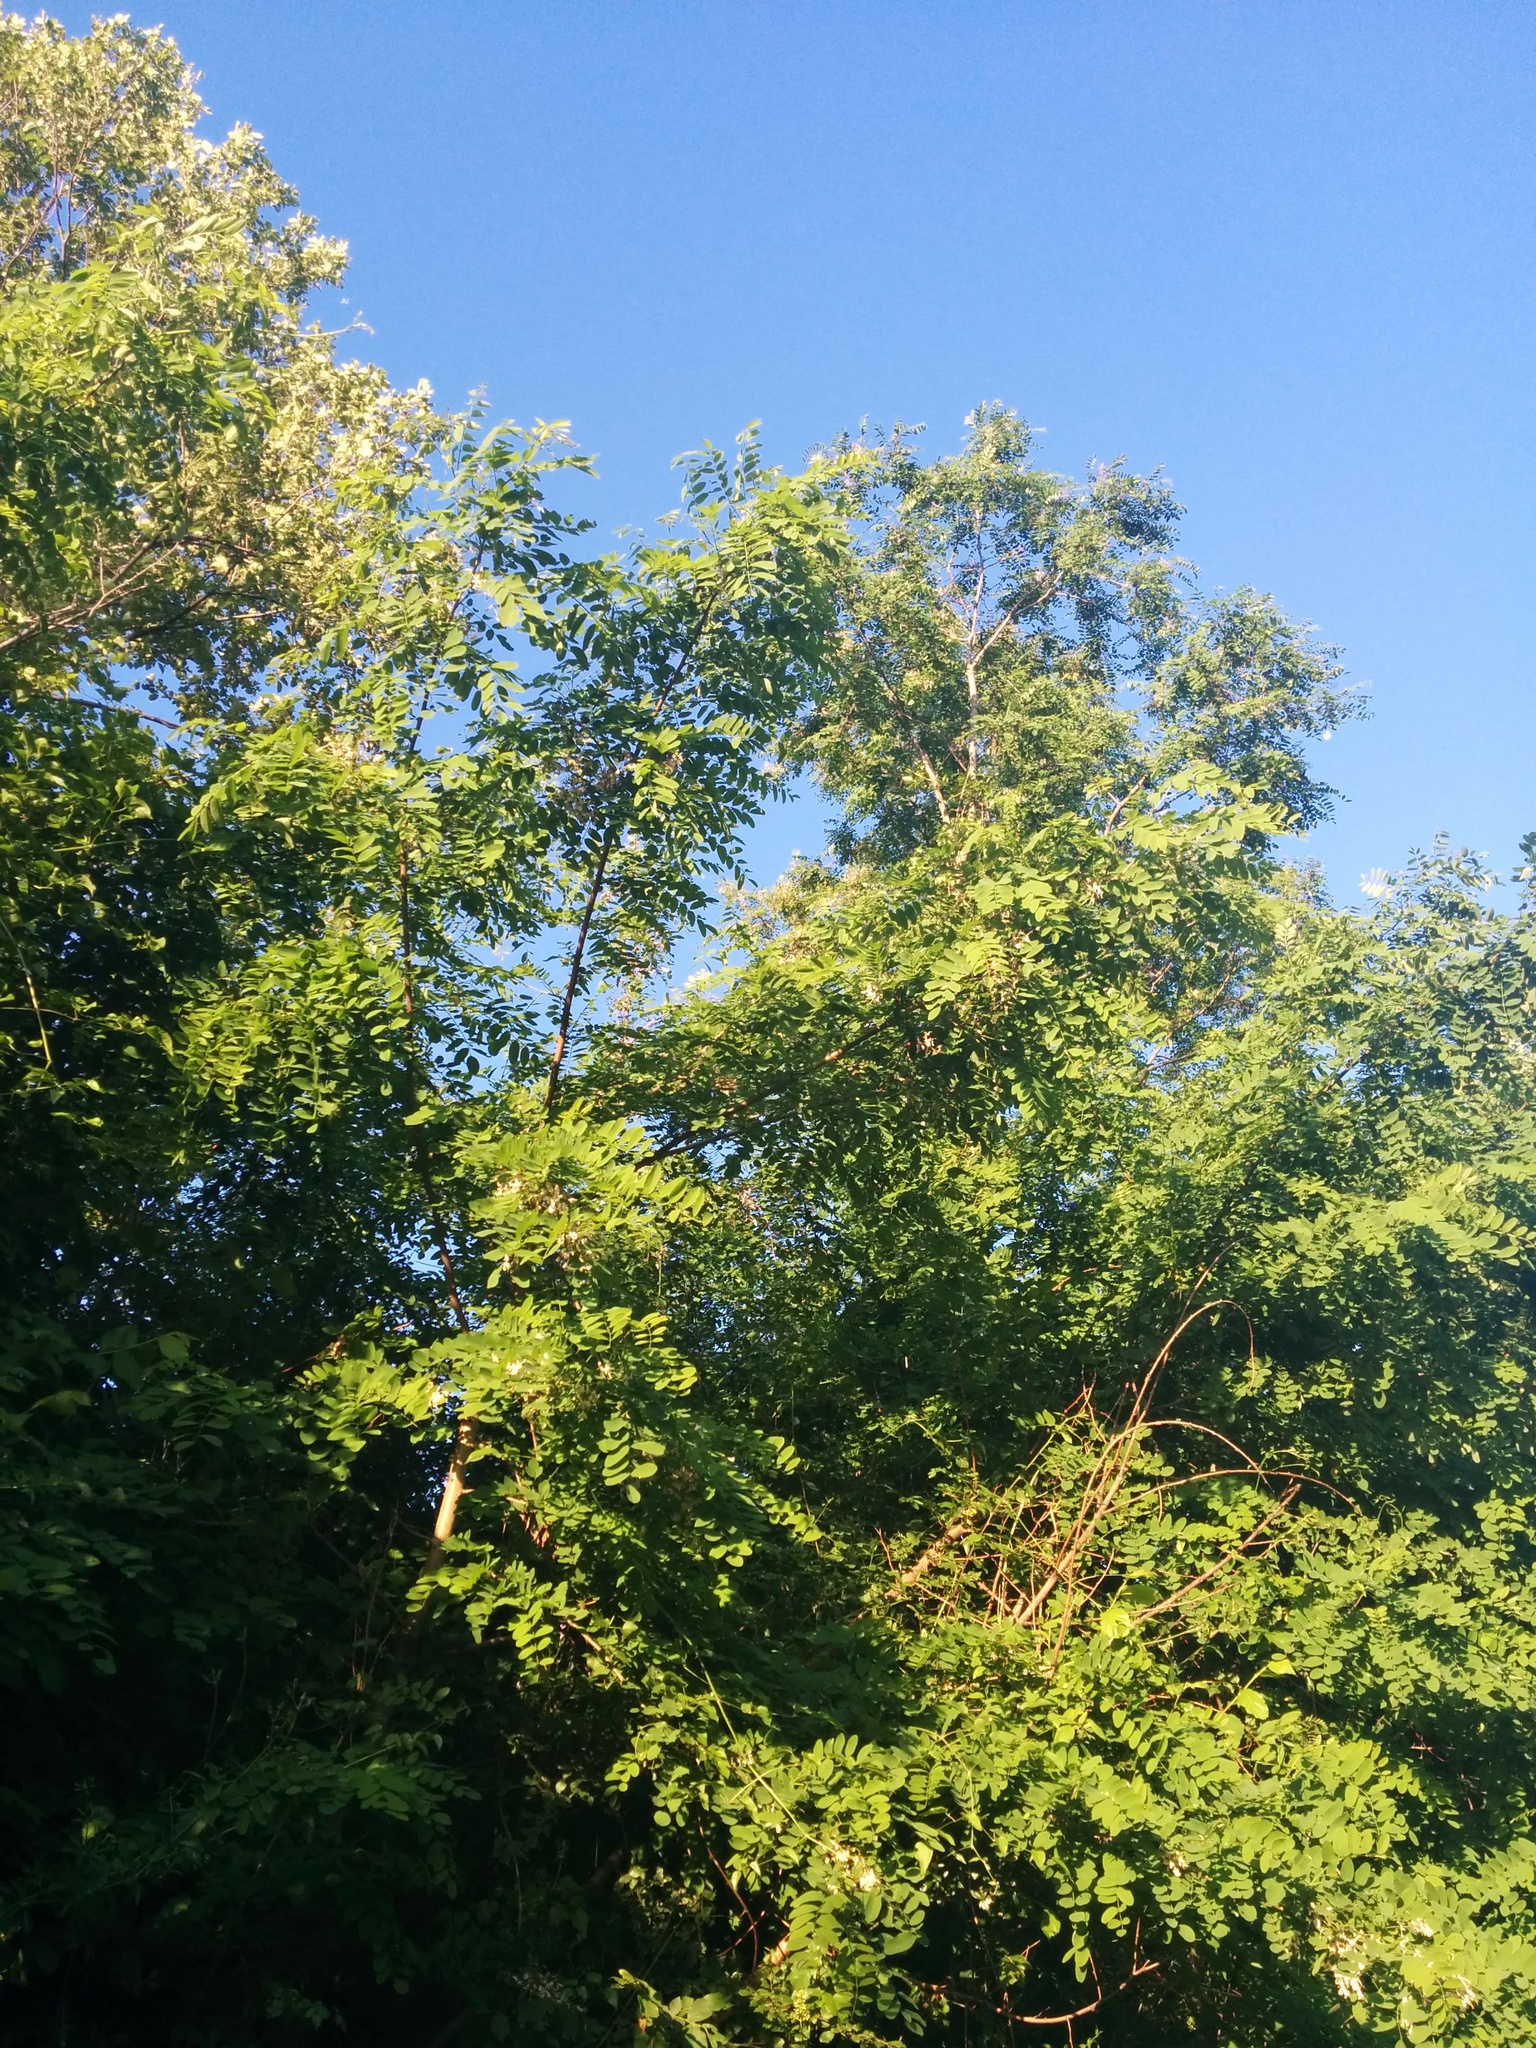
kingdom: Plantae
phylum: Tracheophyta
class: Magnoliopsida
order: Fabales
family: Fabaceae
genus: Robinia
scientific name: Robinia pseudoacacia
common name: Black locust
